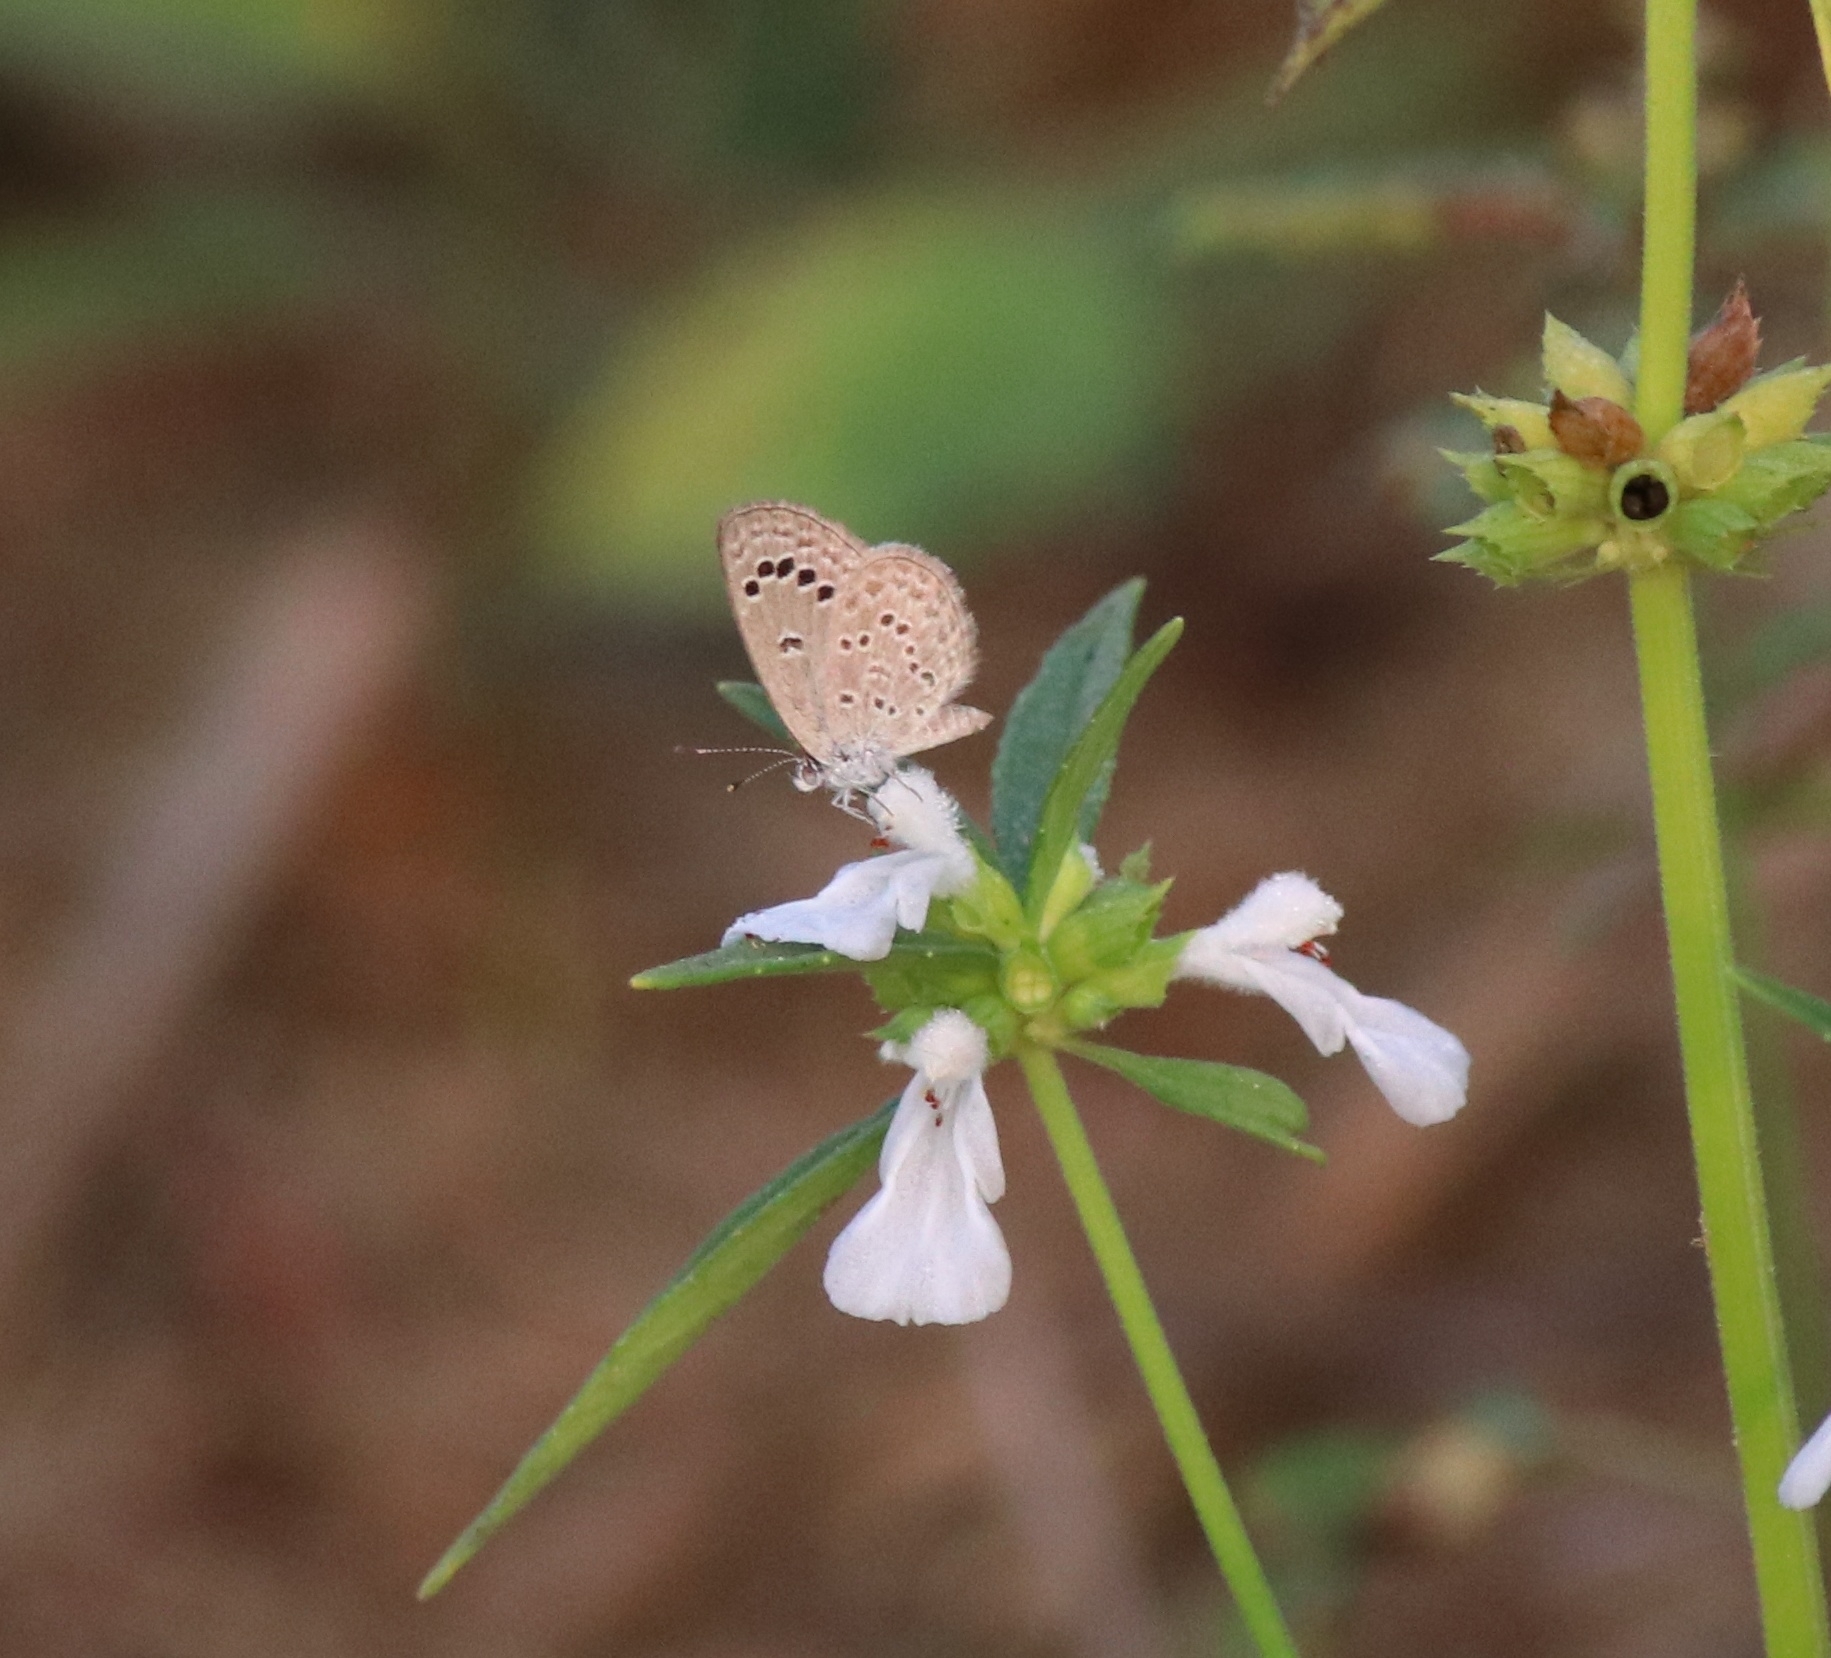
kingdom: Animalia
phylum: Arthropoda
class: Insecta
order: Lepidoptera
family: Lycaenidae
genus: Zizina
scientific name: Zizina otis
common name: Lesser grass blue
